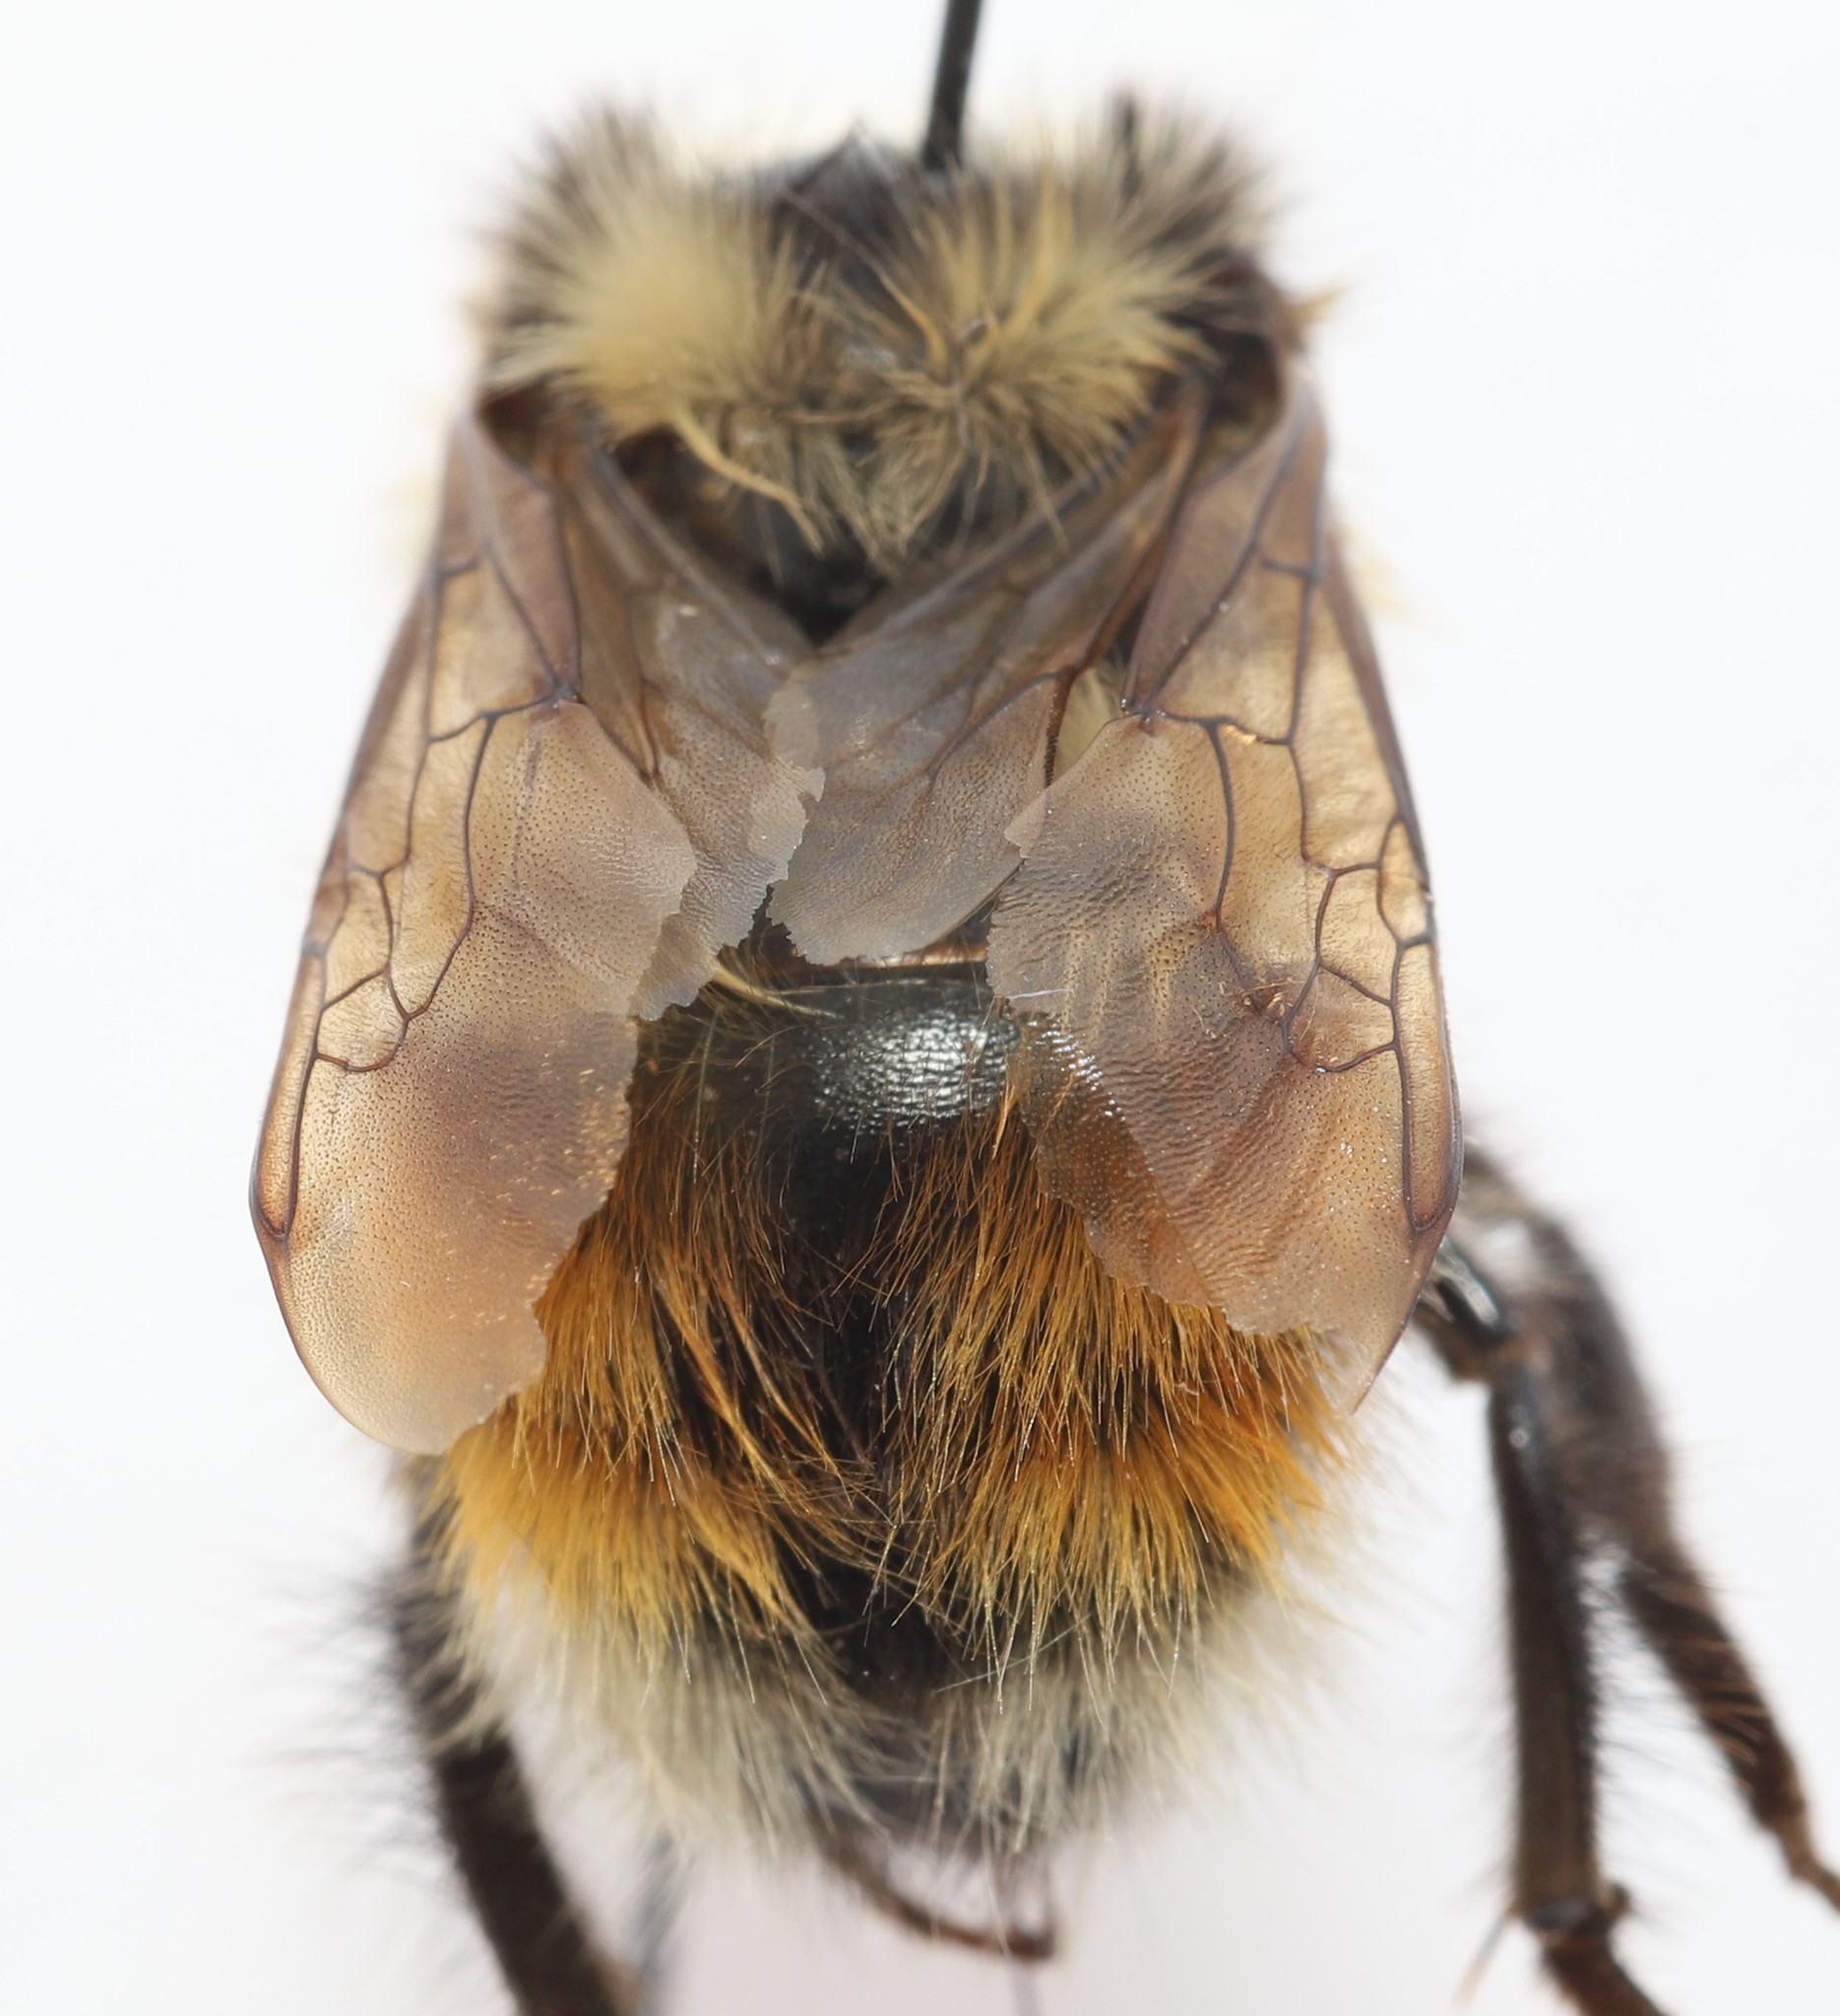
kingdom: Animalia
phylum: Arthropoda
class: Insecta
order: Hymenoptera
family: Apidae
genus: Bombus
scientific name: Bombus sylvicola
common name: Forest bumble bee
